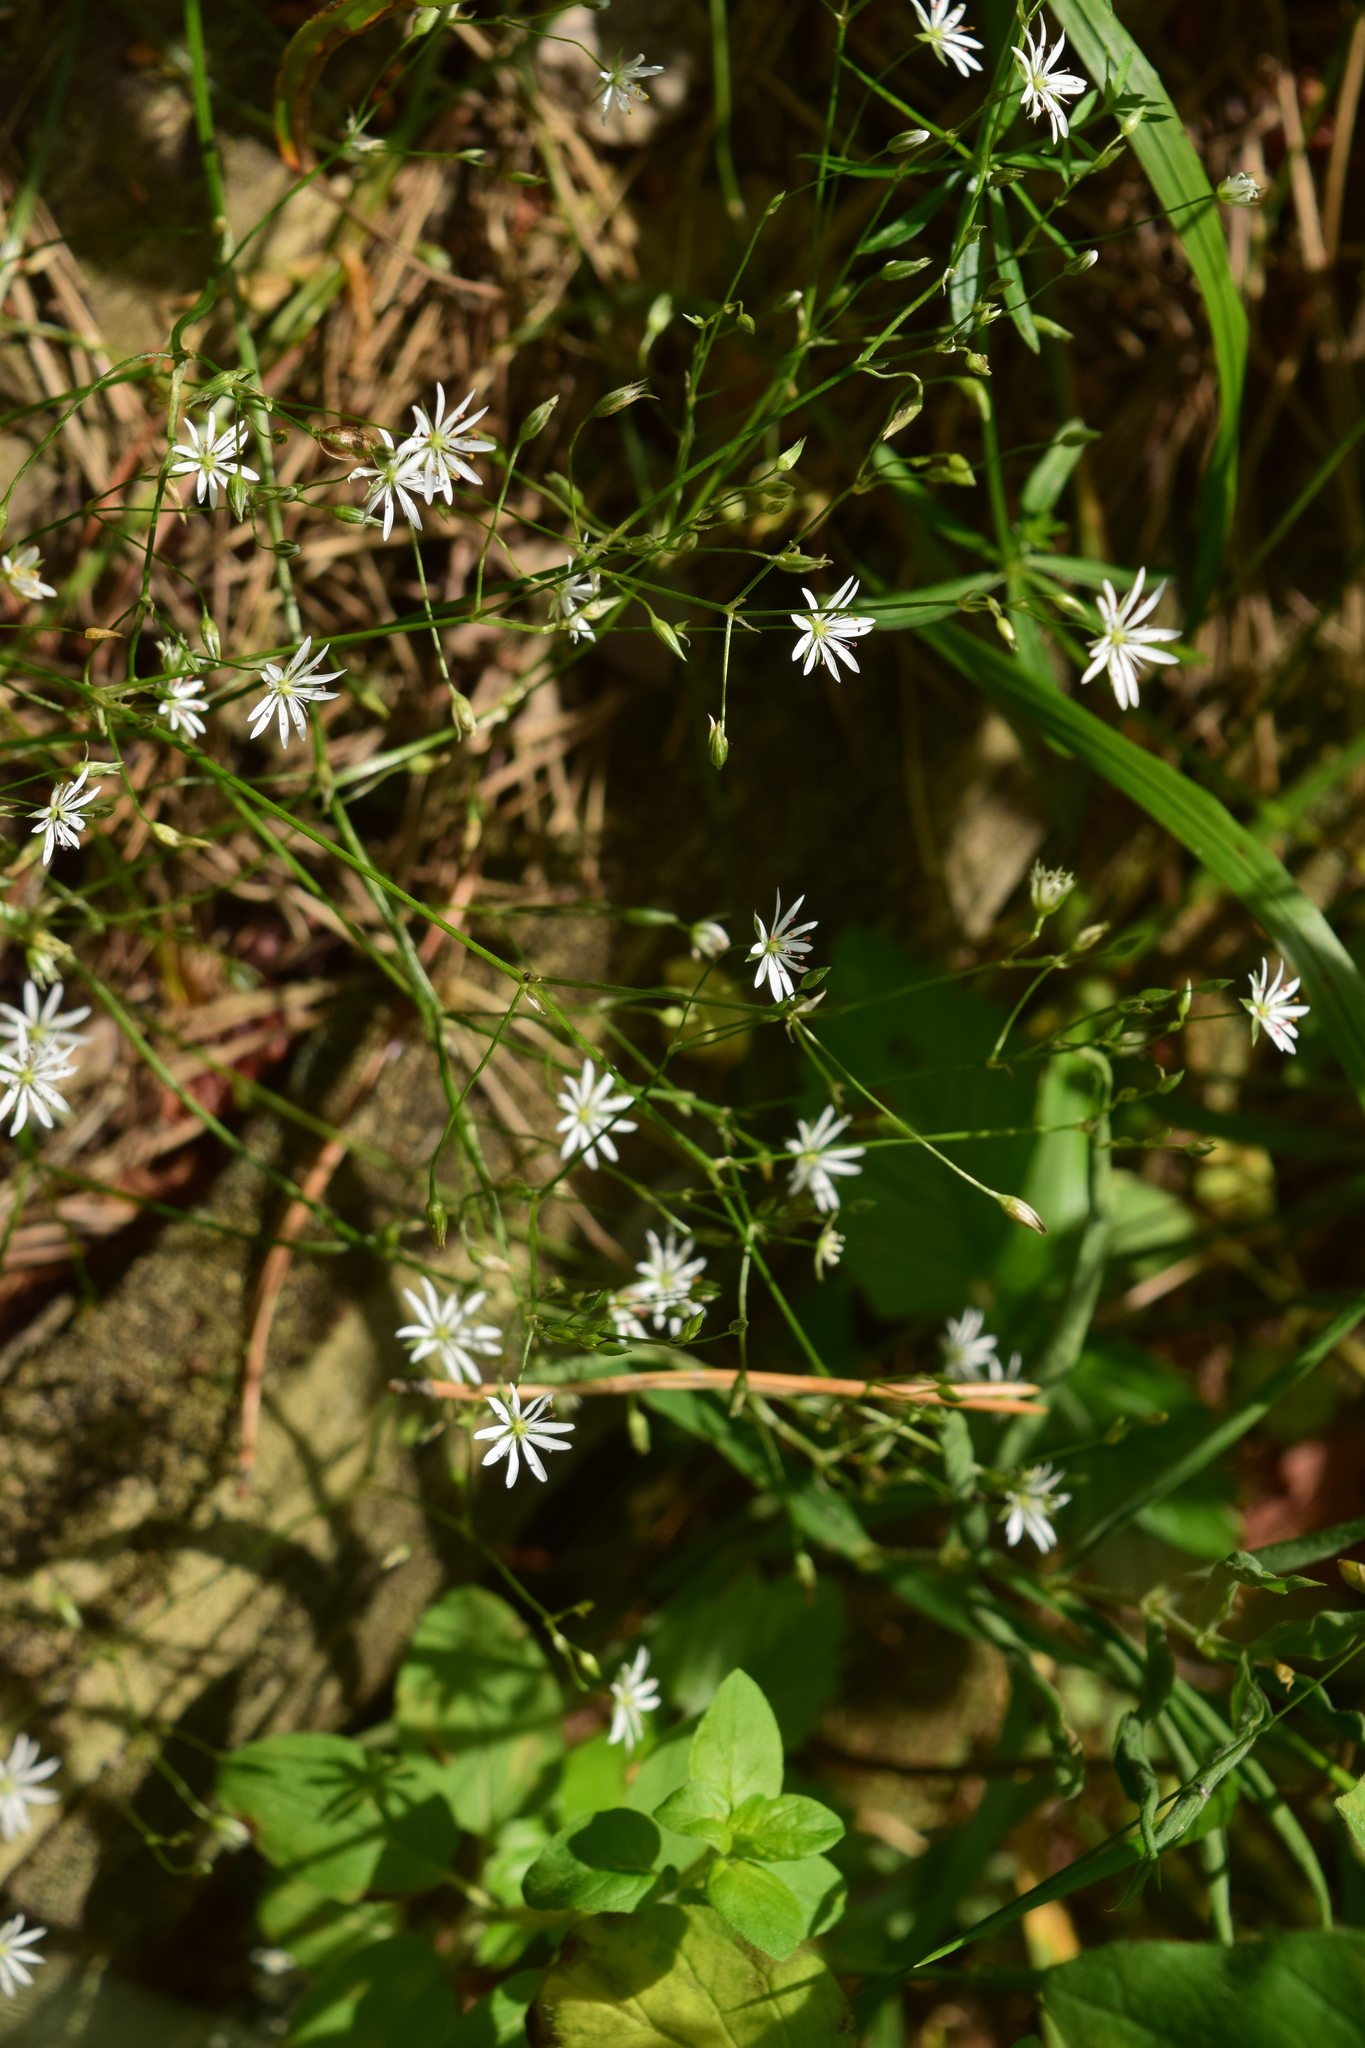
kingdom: Plantae
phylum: Tracheophyta
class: Magnoliopsida
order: Caryophyllales
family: Caryophyllaceae
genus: Stellaria
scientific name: Stellaria graminea
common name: Grass-like starwort
